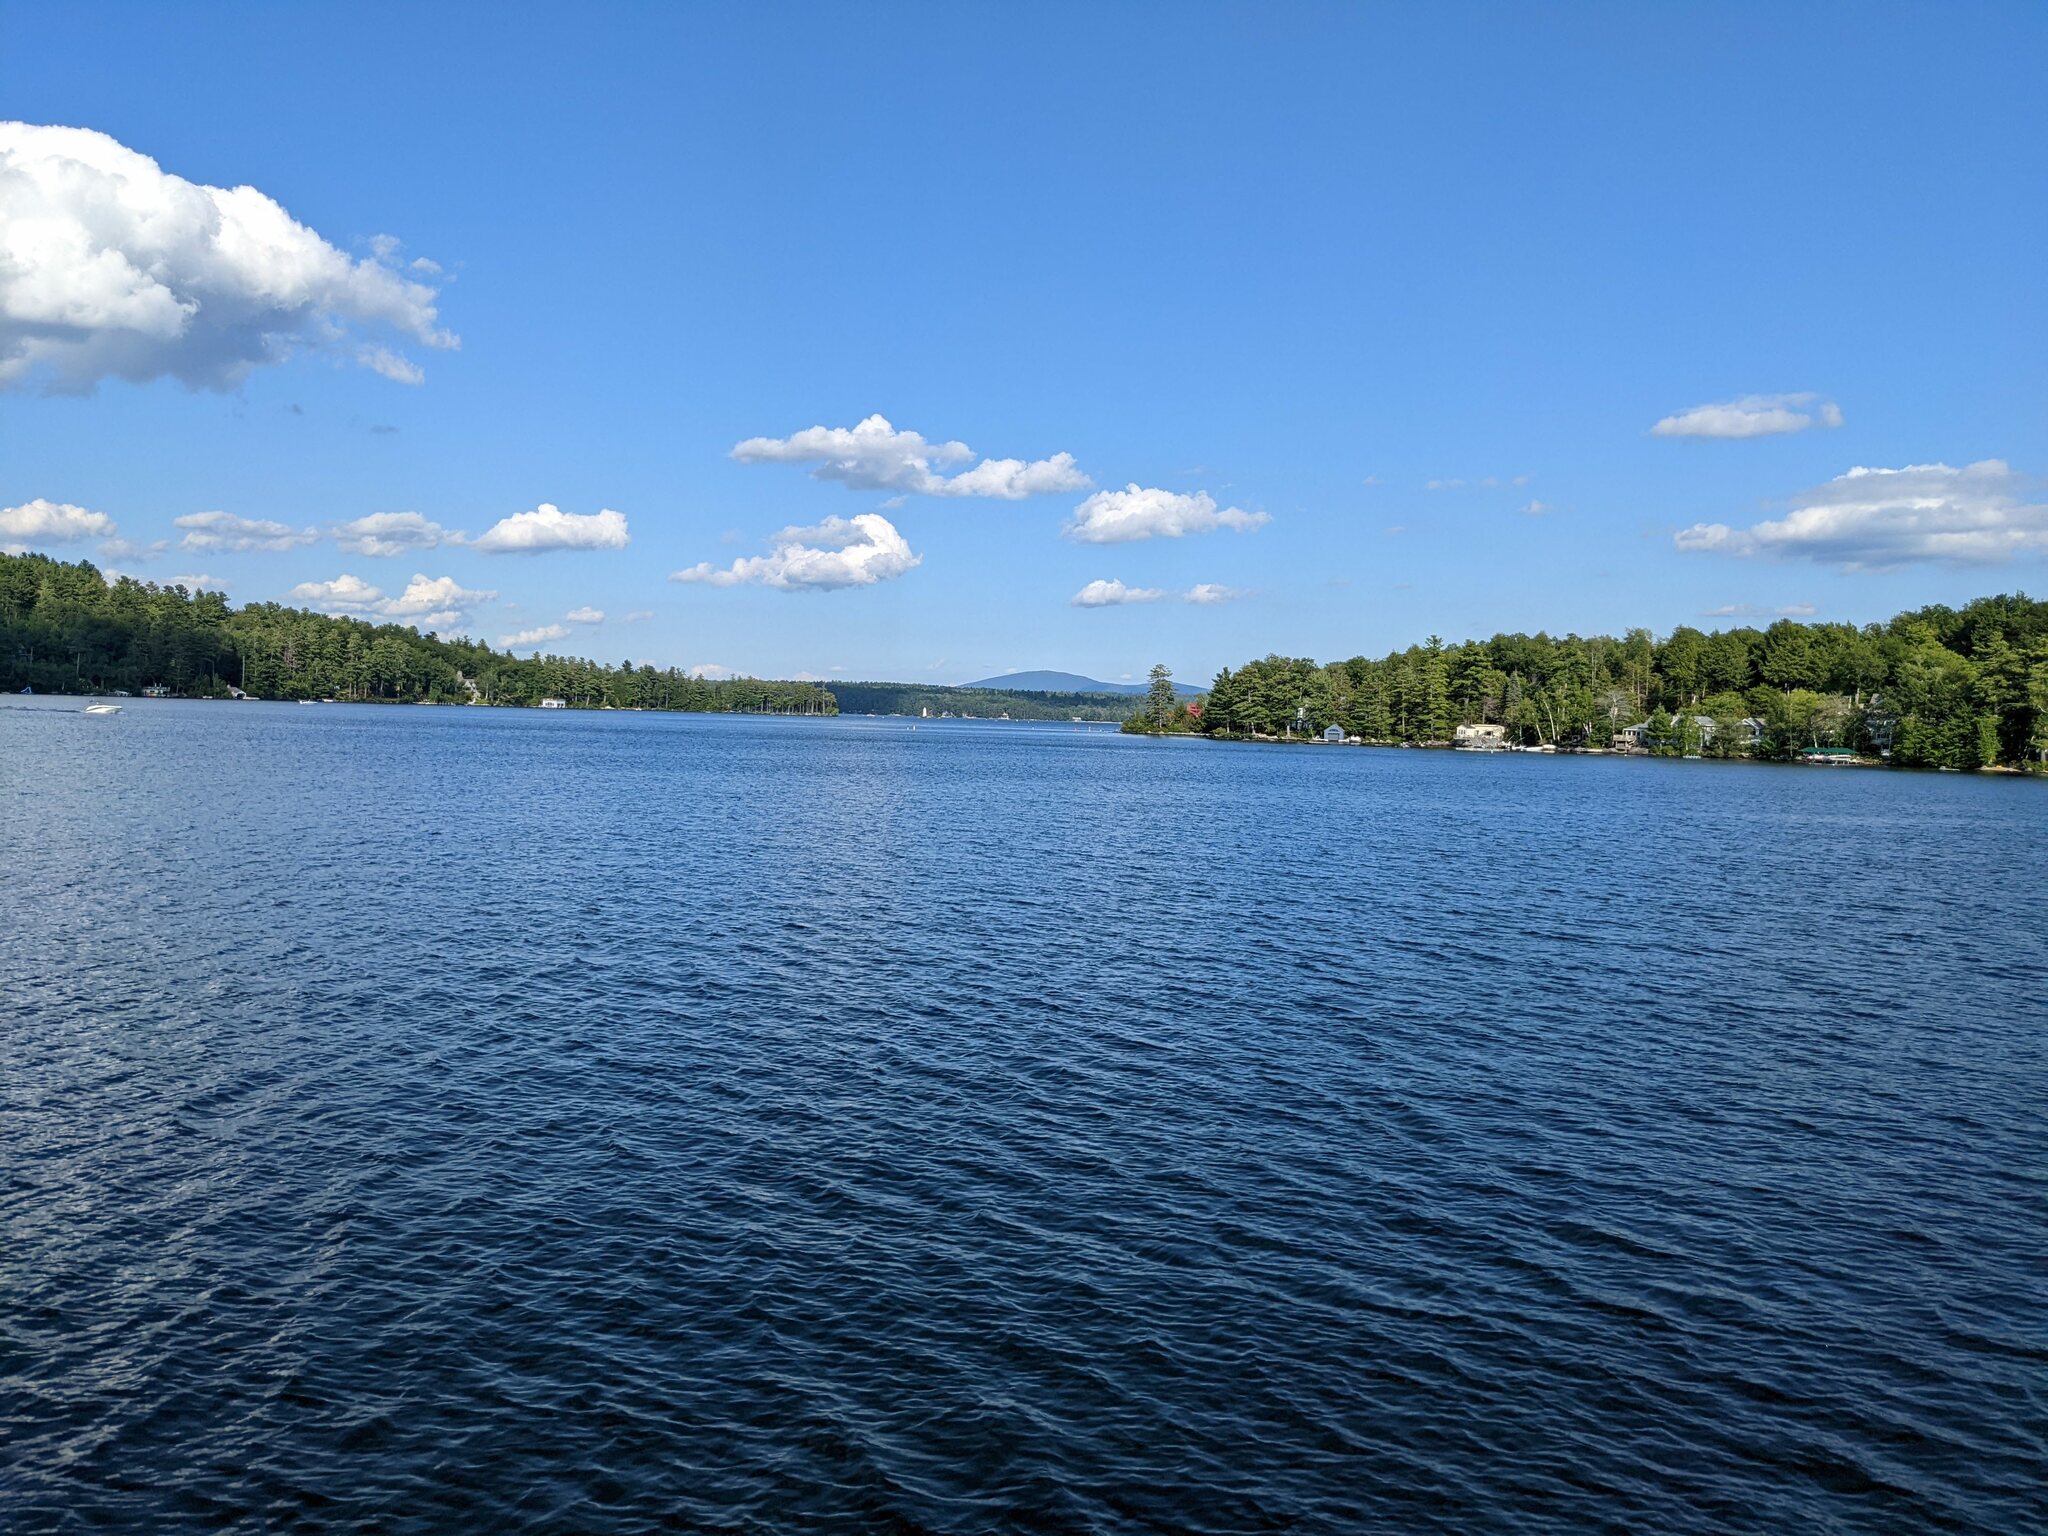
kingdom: Plantae
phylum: Tracheophyta
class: Pinopsida
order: Pinales
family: Pinaceae
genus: Pinus
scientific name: Pinus strobus
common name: Weymouth pine
